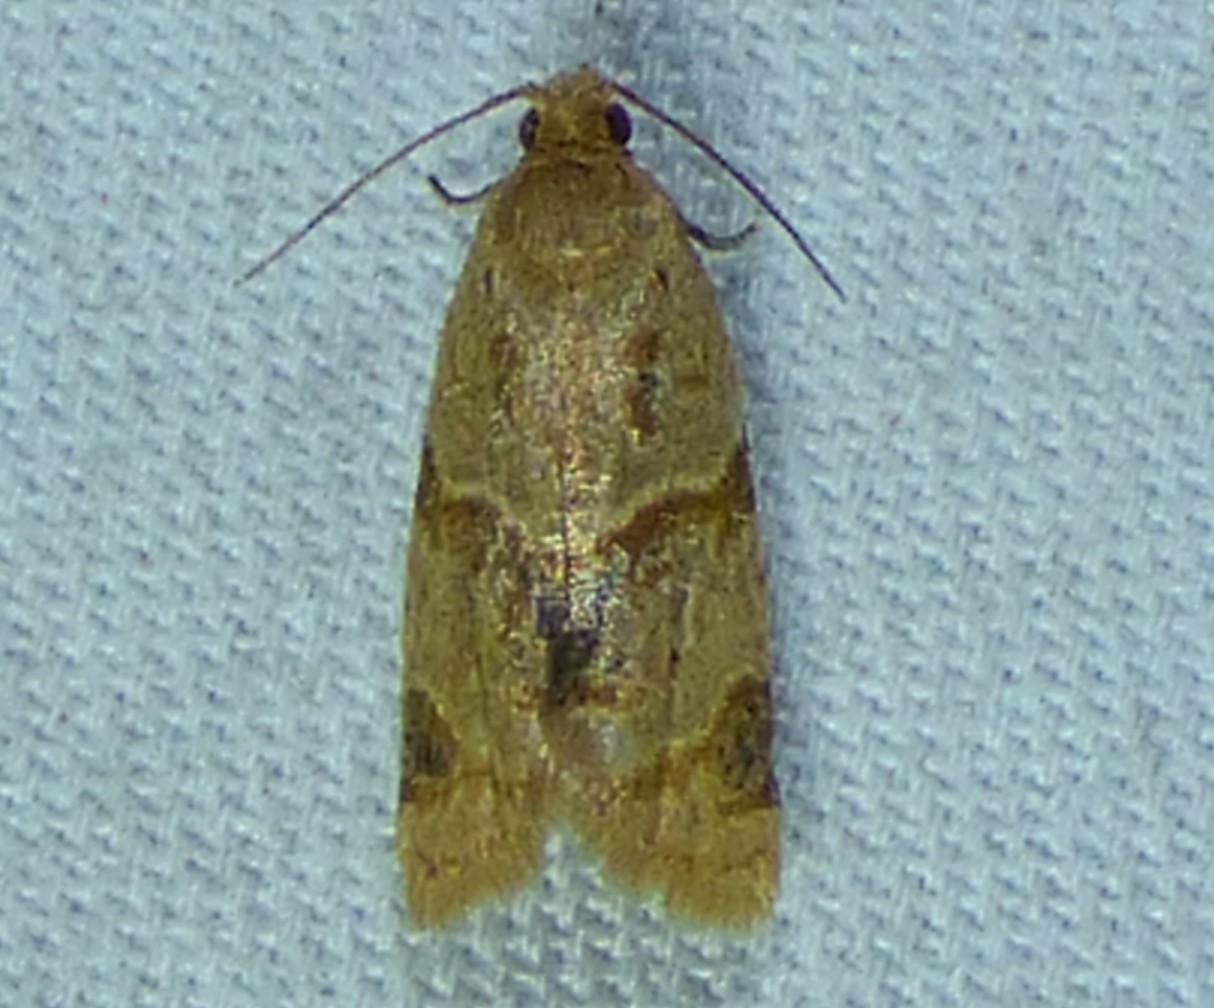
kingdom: Animalia
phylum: Arthropoda
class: Insecta
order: Lepidoptera
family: Tortricidae
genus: Clepsis
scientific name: Clepsis peritana
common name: Garden tortrix
